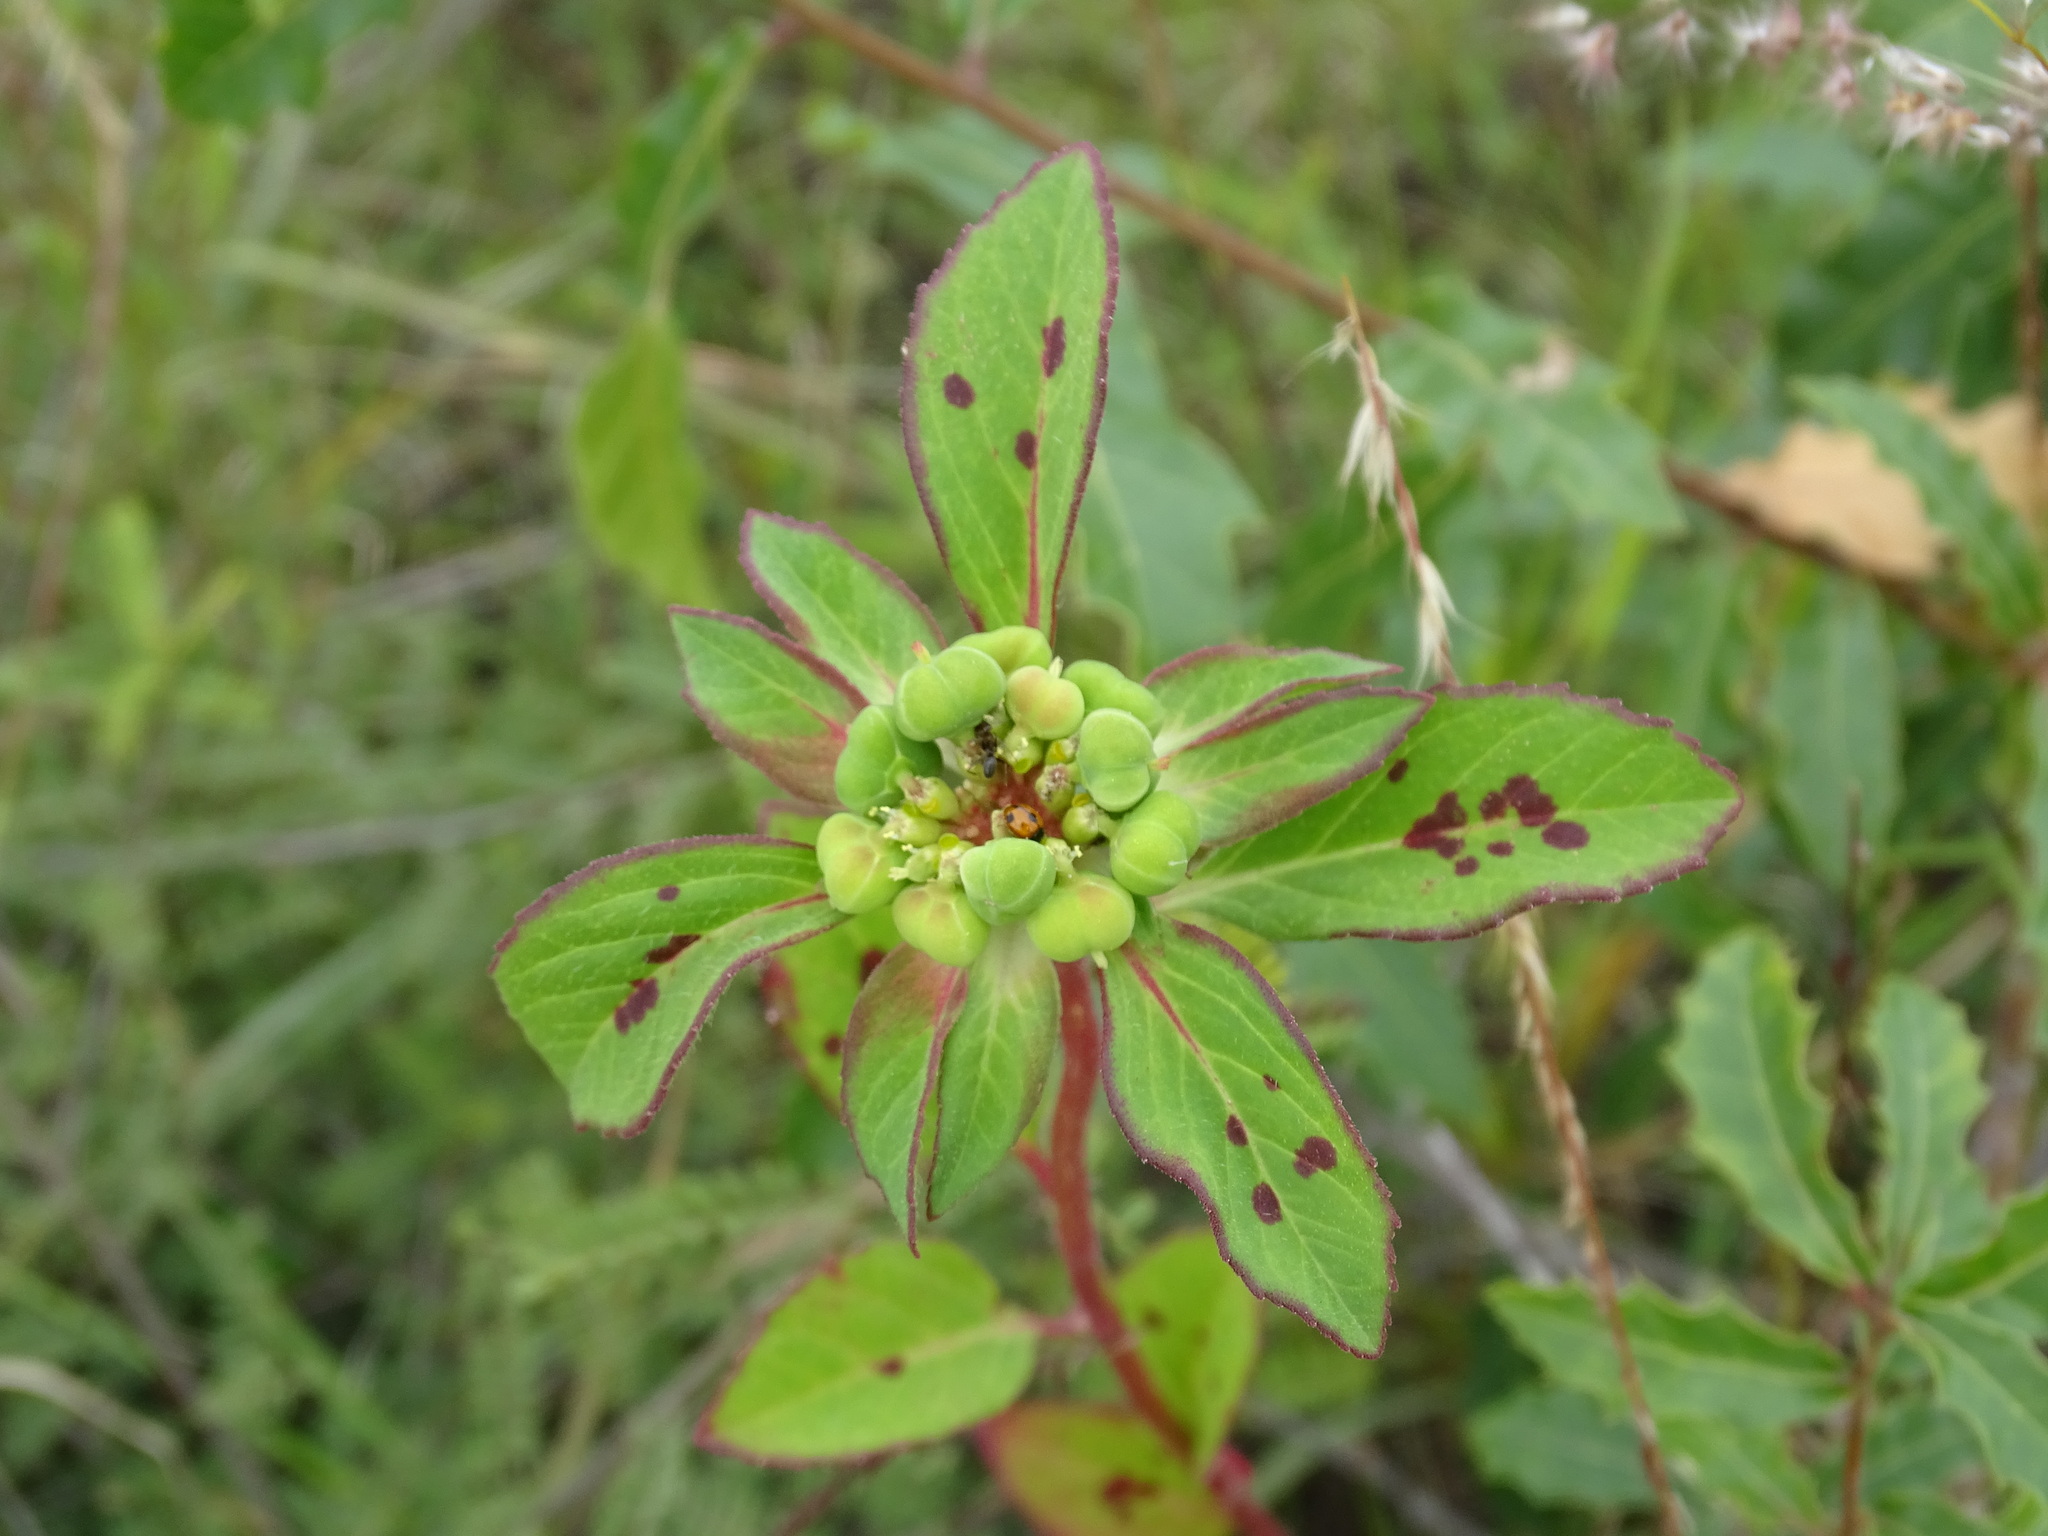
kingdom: Plantae
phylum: Tracheophyta
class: Magnoliopsida
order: Malpighiales
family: Euphorbiaceae
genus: Euphorbia
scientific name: Euphorbia schiedeana
